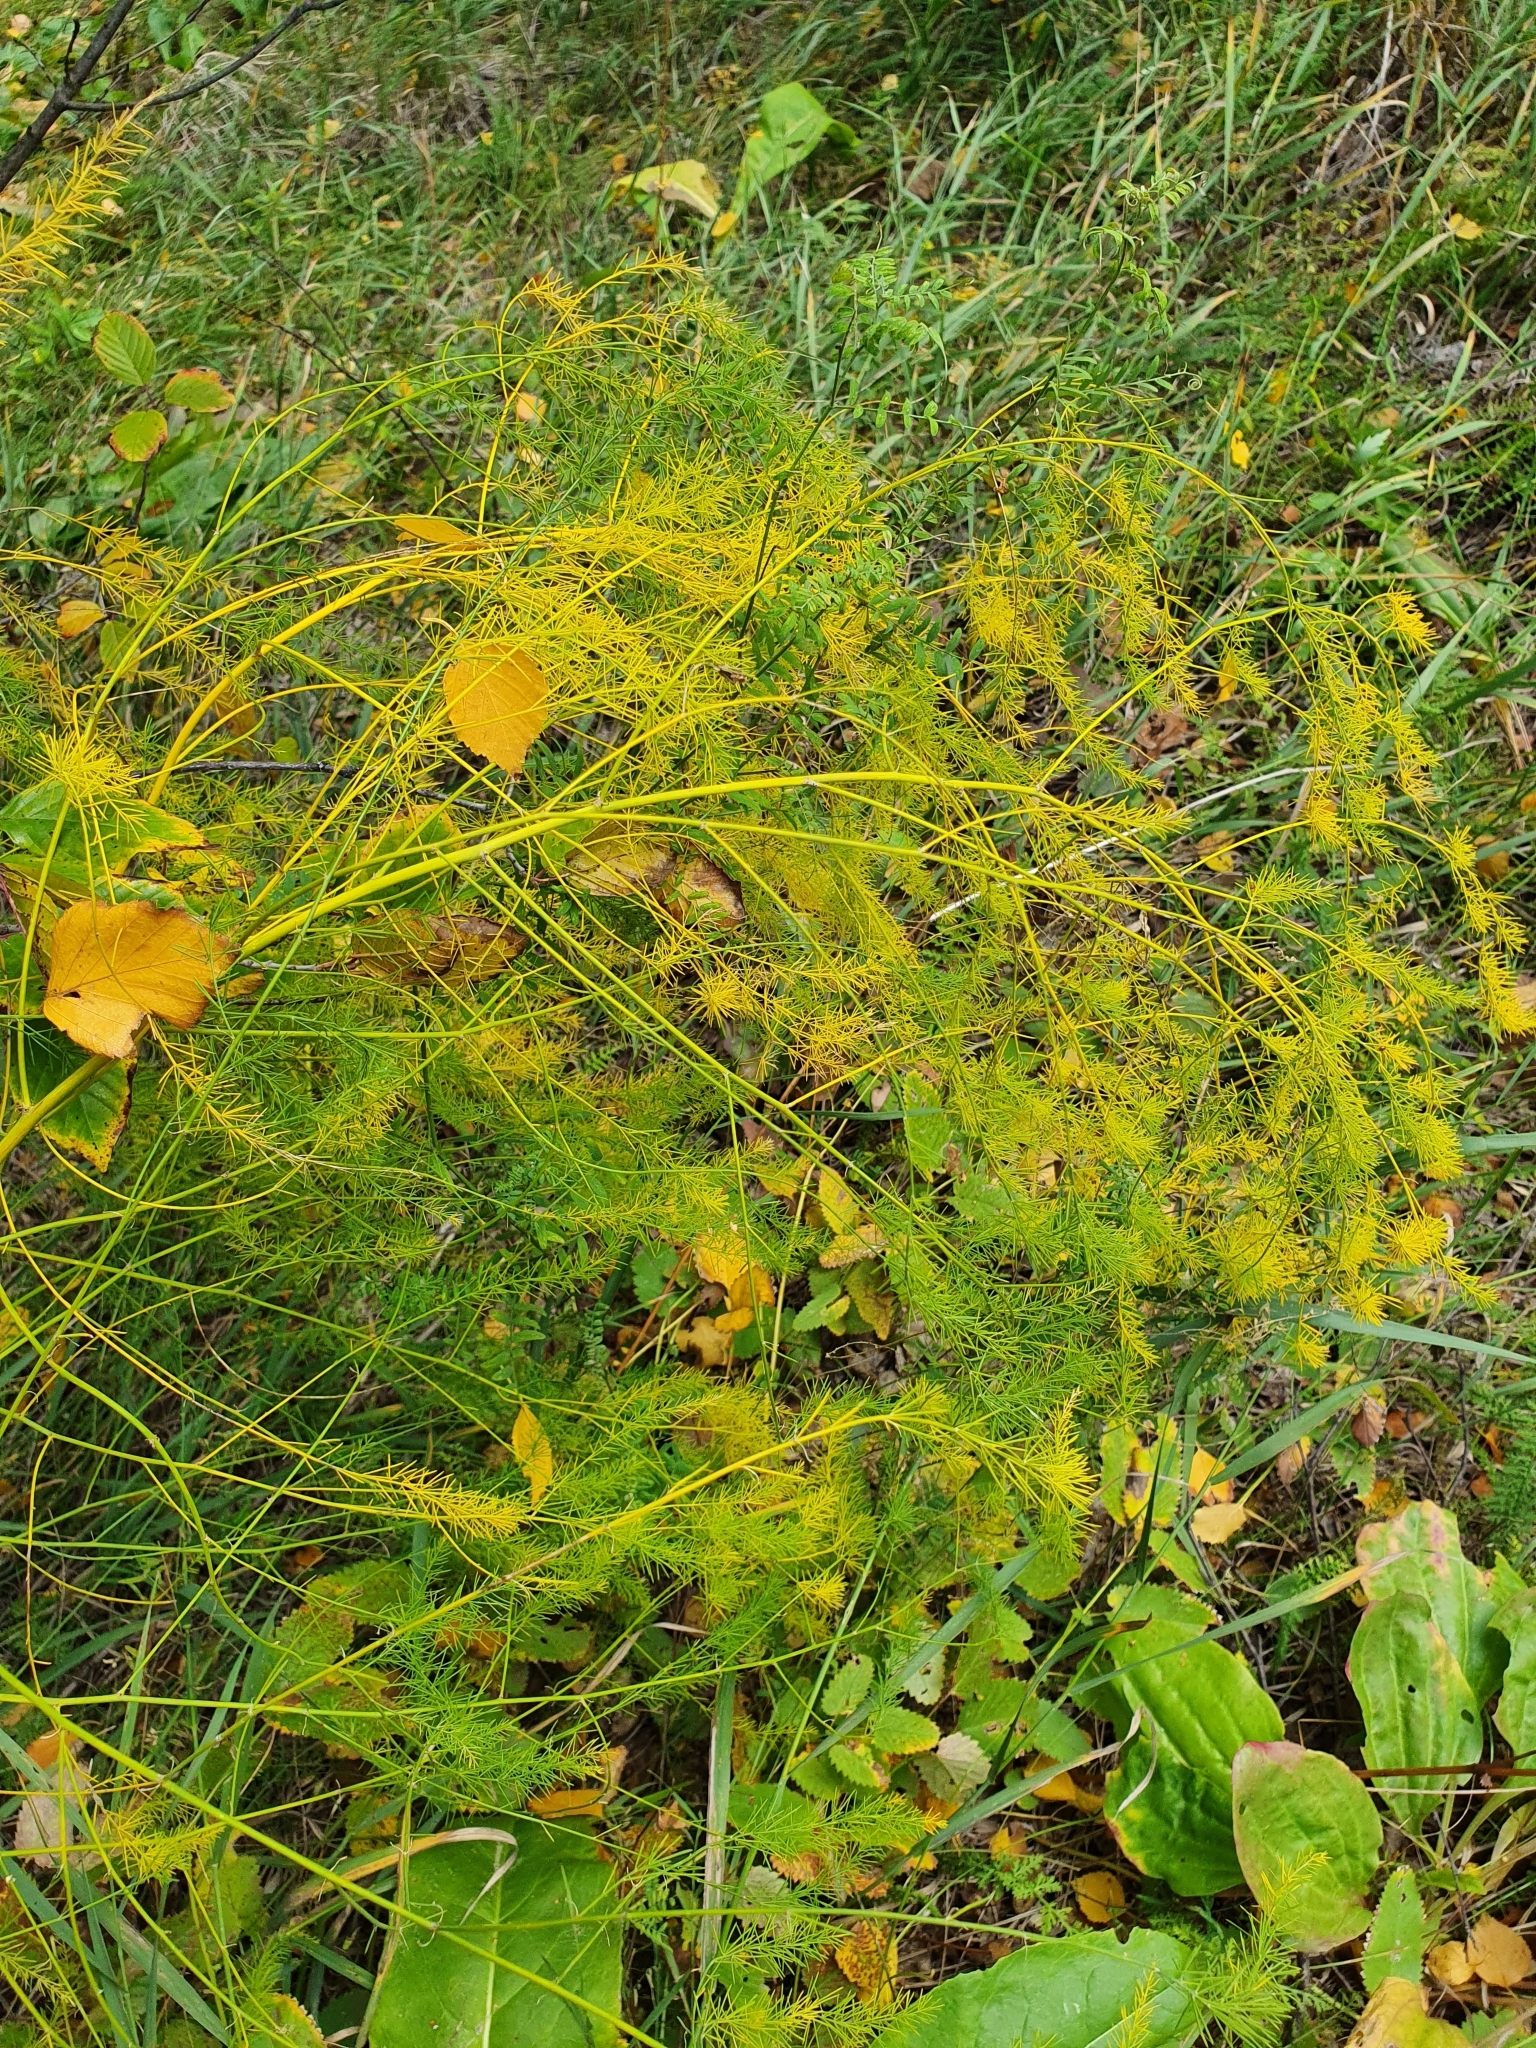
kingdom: Plantae
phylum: Tracheophyta
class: Liliopsida
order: Asparagales
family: Asparagaceae
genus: Asparagus
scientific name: Asparagus officinalis
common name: Garden asparagus
